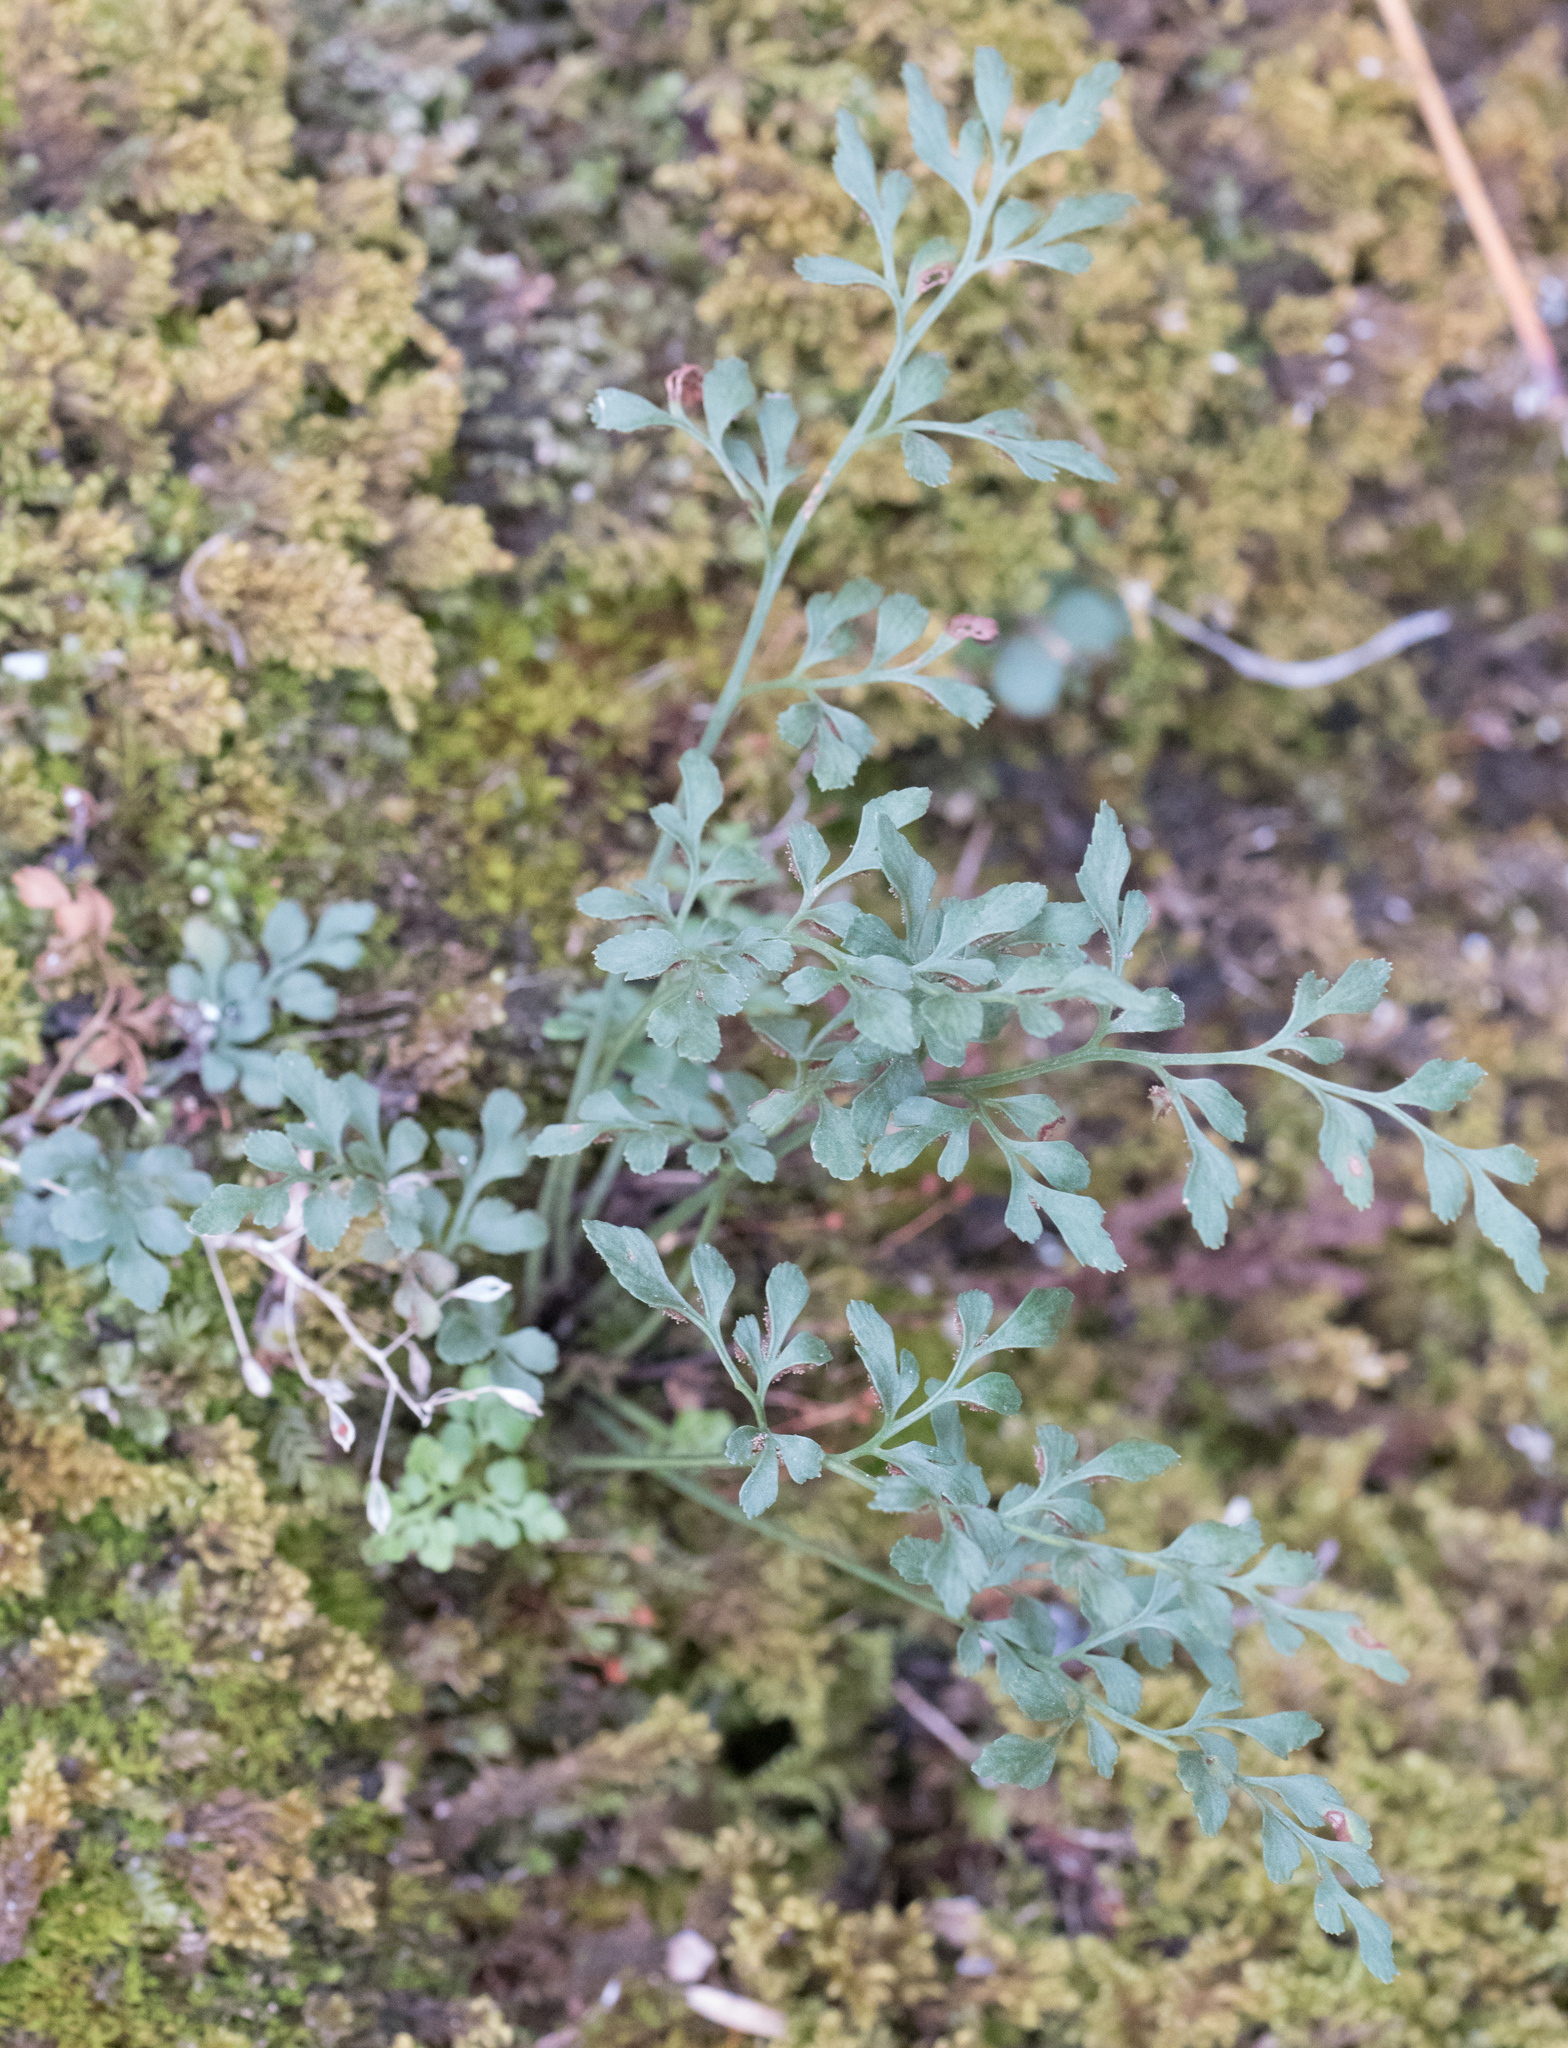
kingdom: Plantae
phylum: Tracheophyta
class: Polypodiopsida
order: Polypodiales
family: Aspleniaceae
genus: Asplenium
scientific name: Asplenium ruta-muraria
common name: Wall-rue
